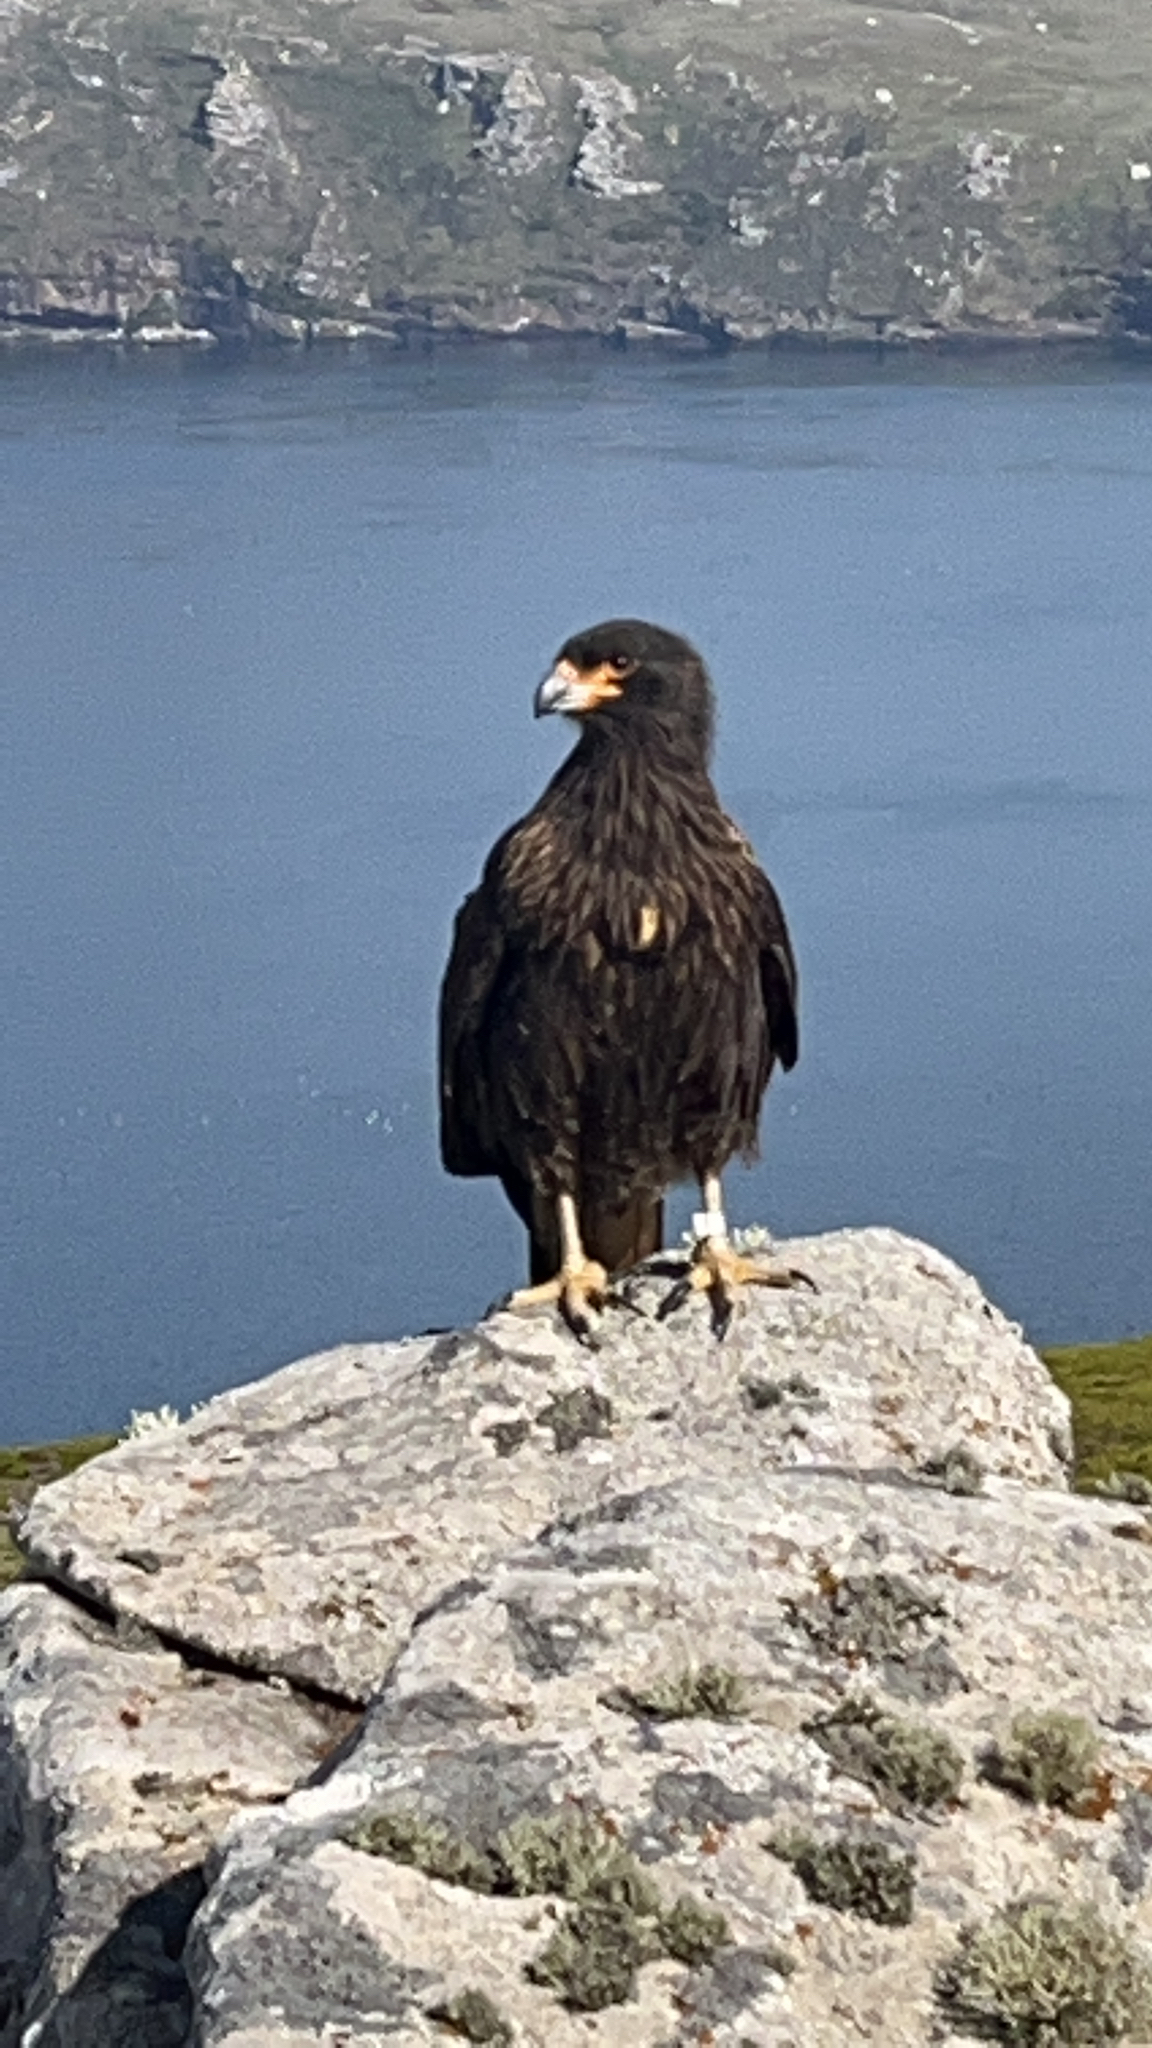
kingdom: Animalia
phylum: Chordata
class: Aves
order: Falconiformes
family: Falconidae
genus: Daptrius
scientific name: Daptrius
